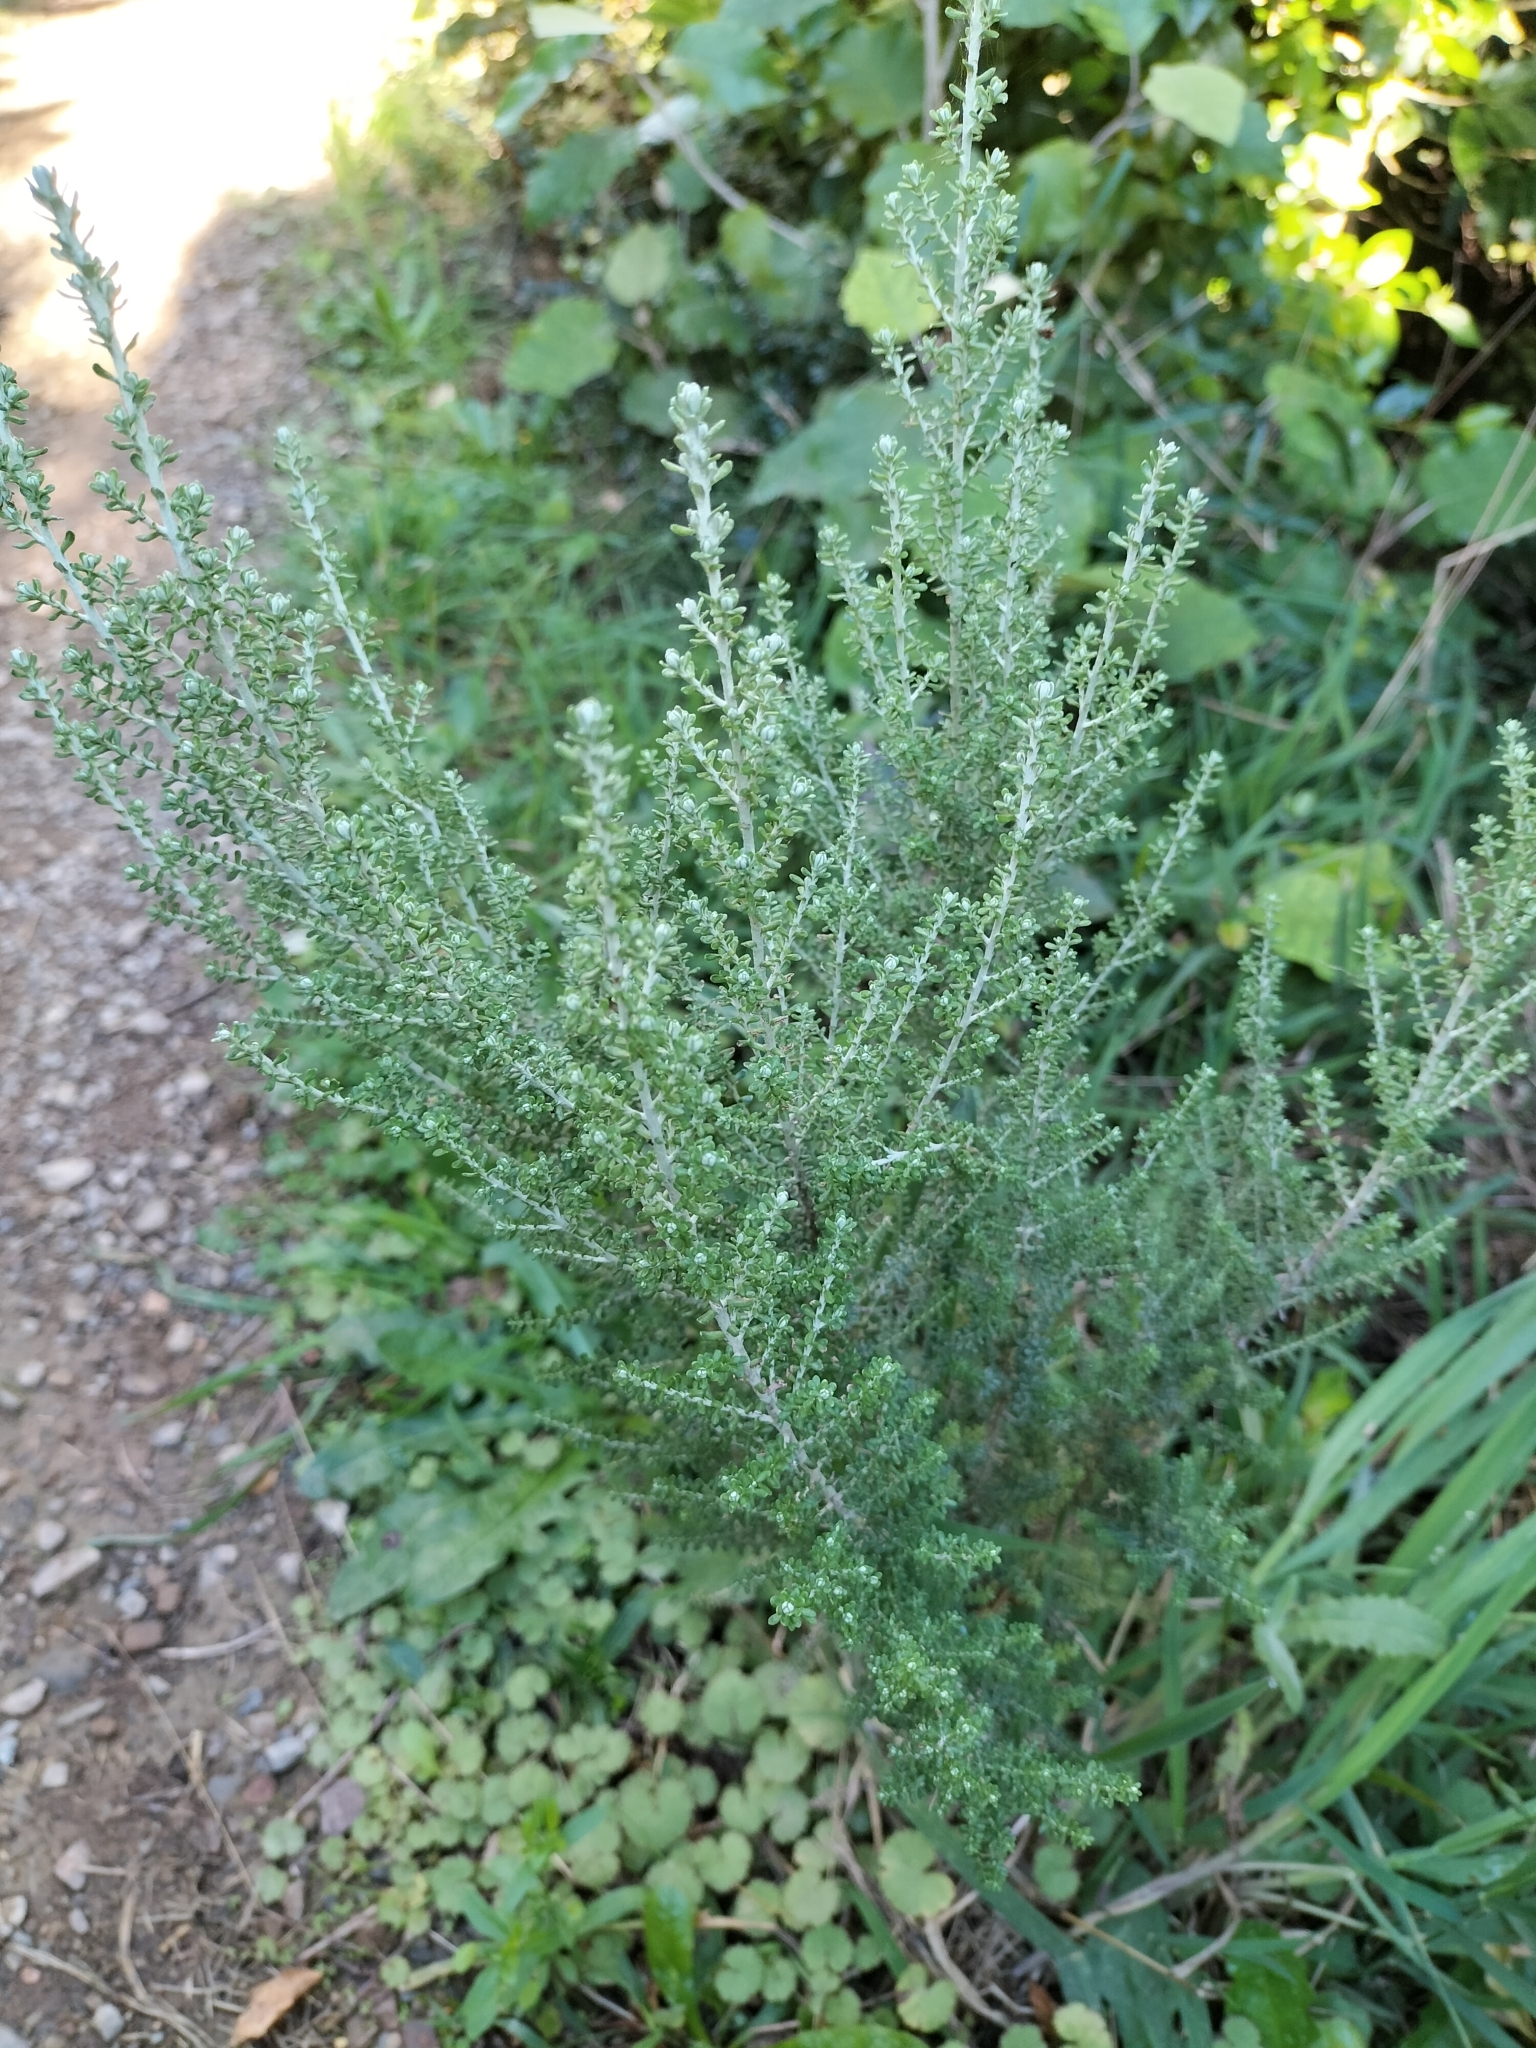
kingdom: Plantae
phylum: Tracheophyta
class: Magnoliopsida
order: Asterales
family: Asteraceae
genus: Ozothamnus
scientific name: Ozothamnus leptophyllus
